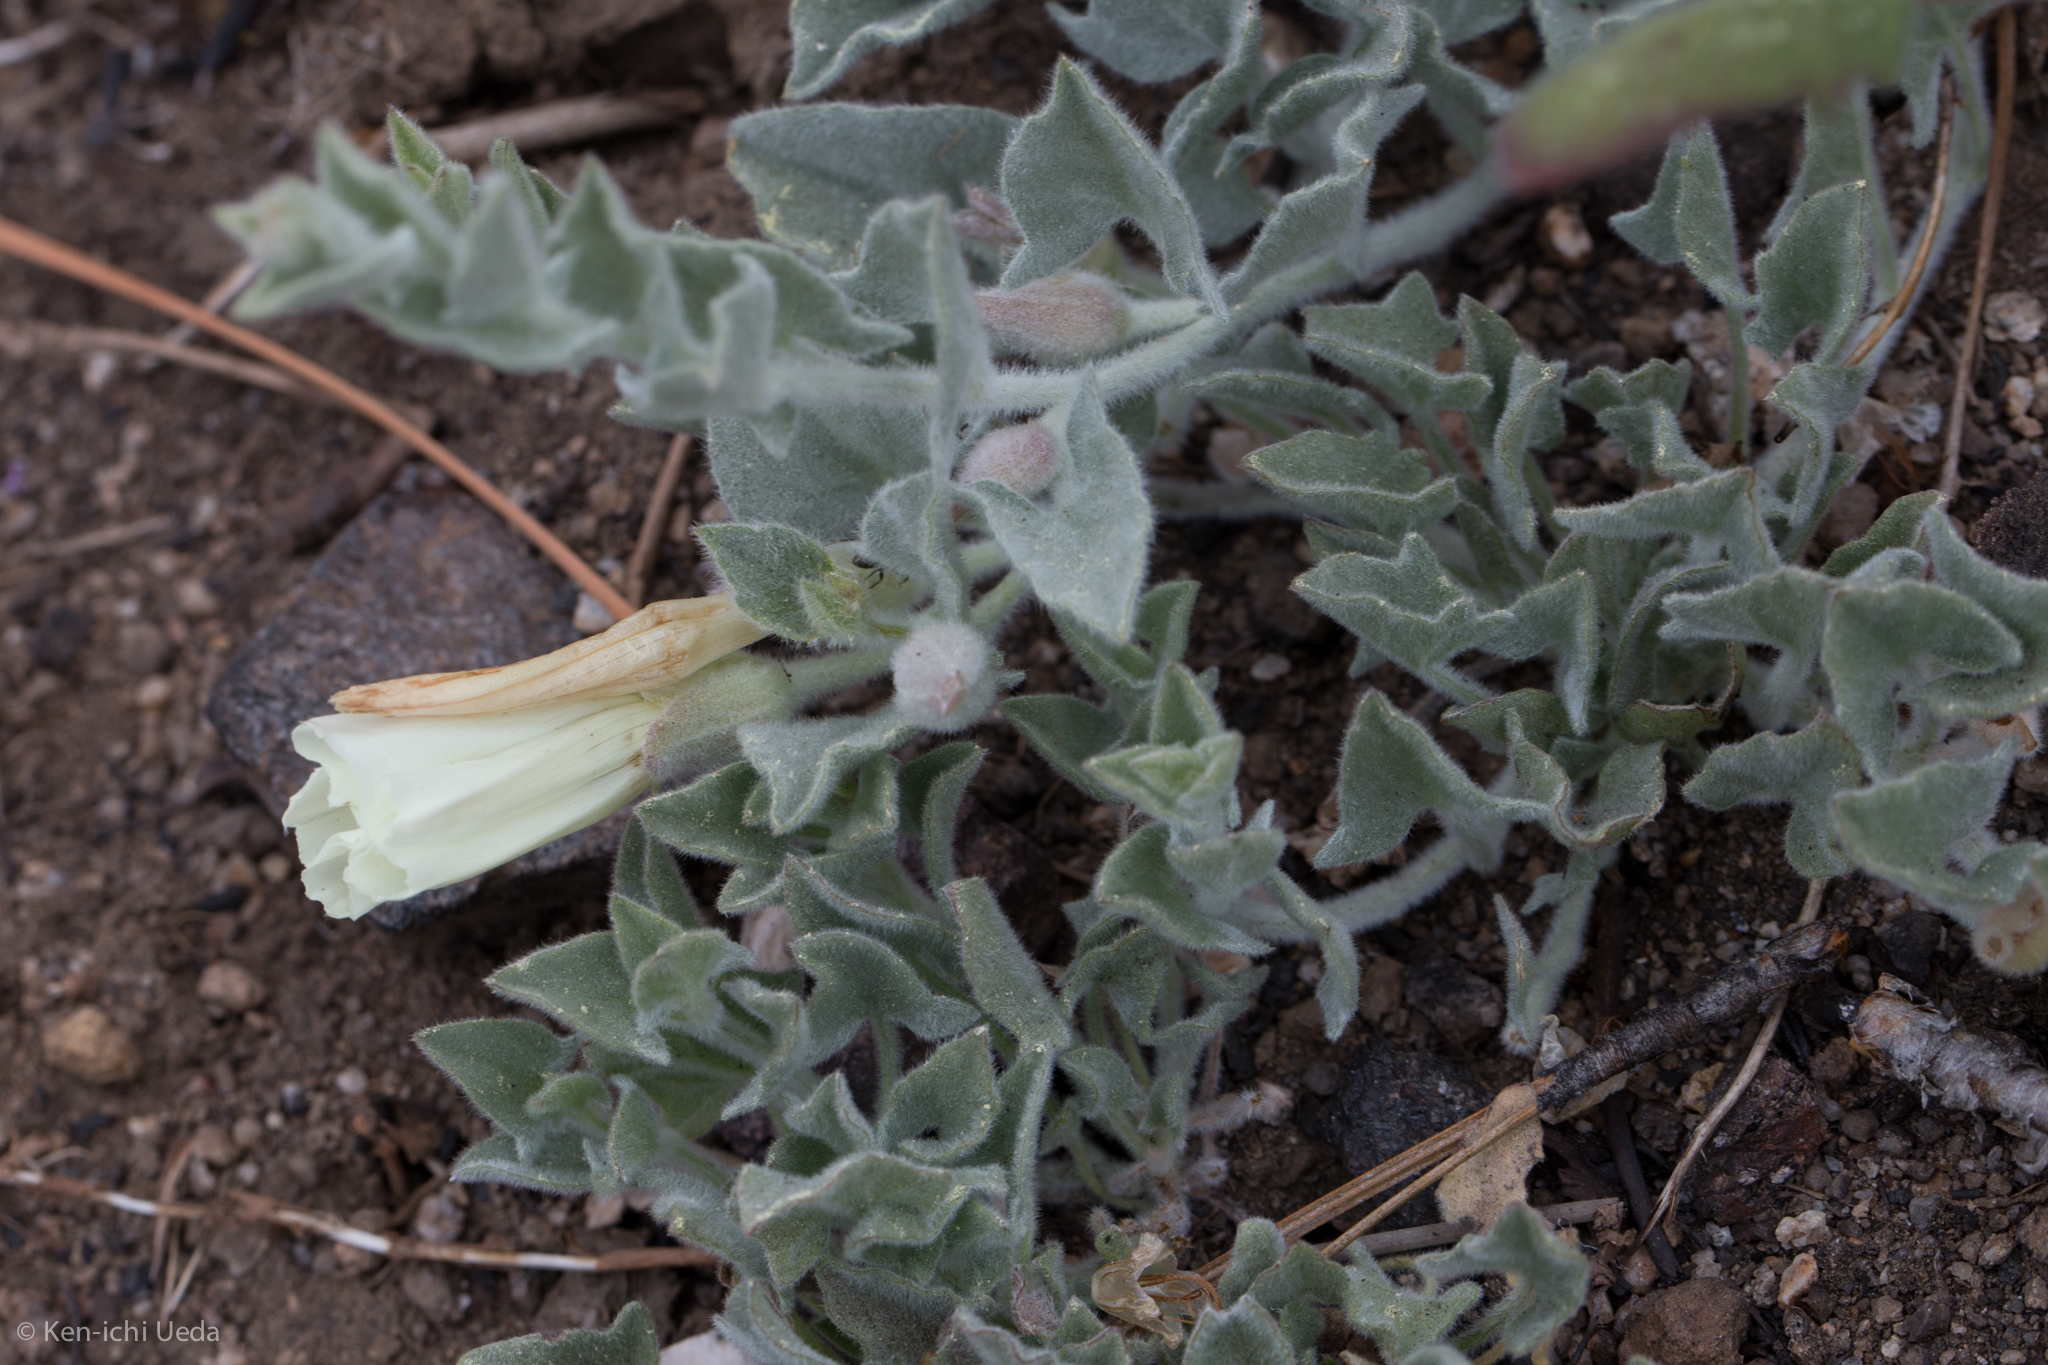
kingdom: Plantae
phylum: Tracheophyta
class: Magnoliopsida
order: Solanales
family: Convolvulaceae
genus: Calystegia
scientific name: Calystegia malacophylla
